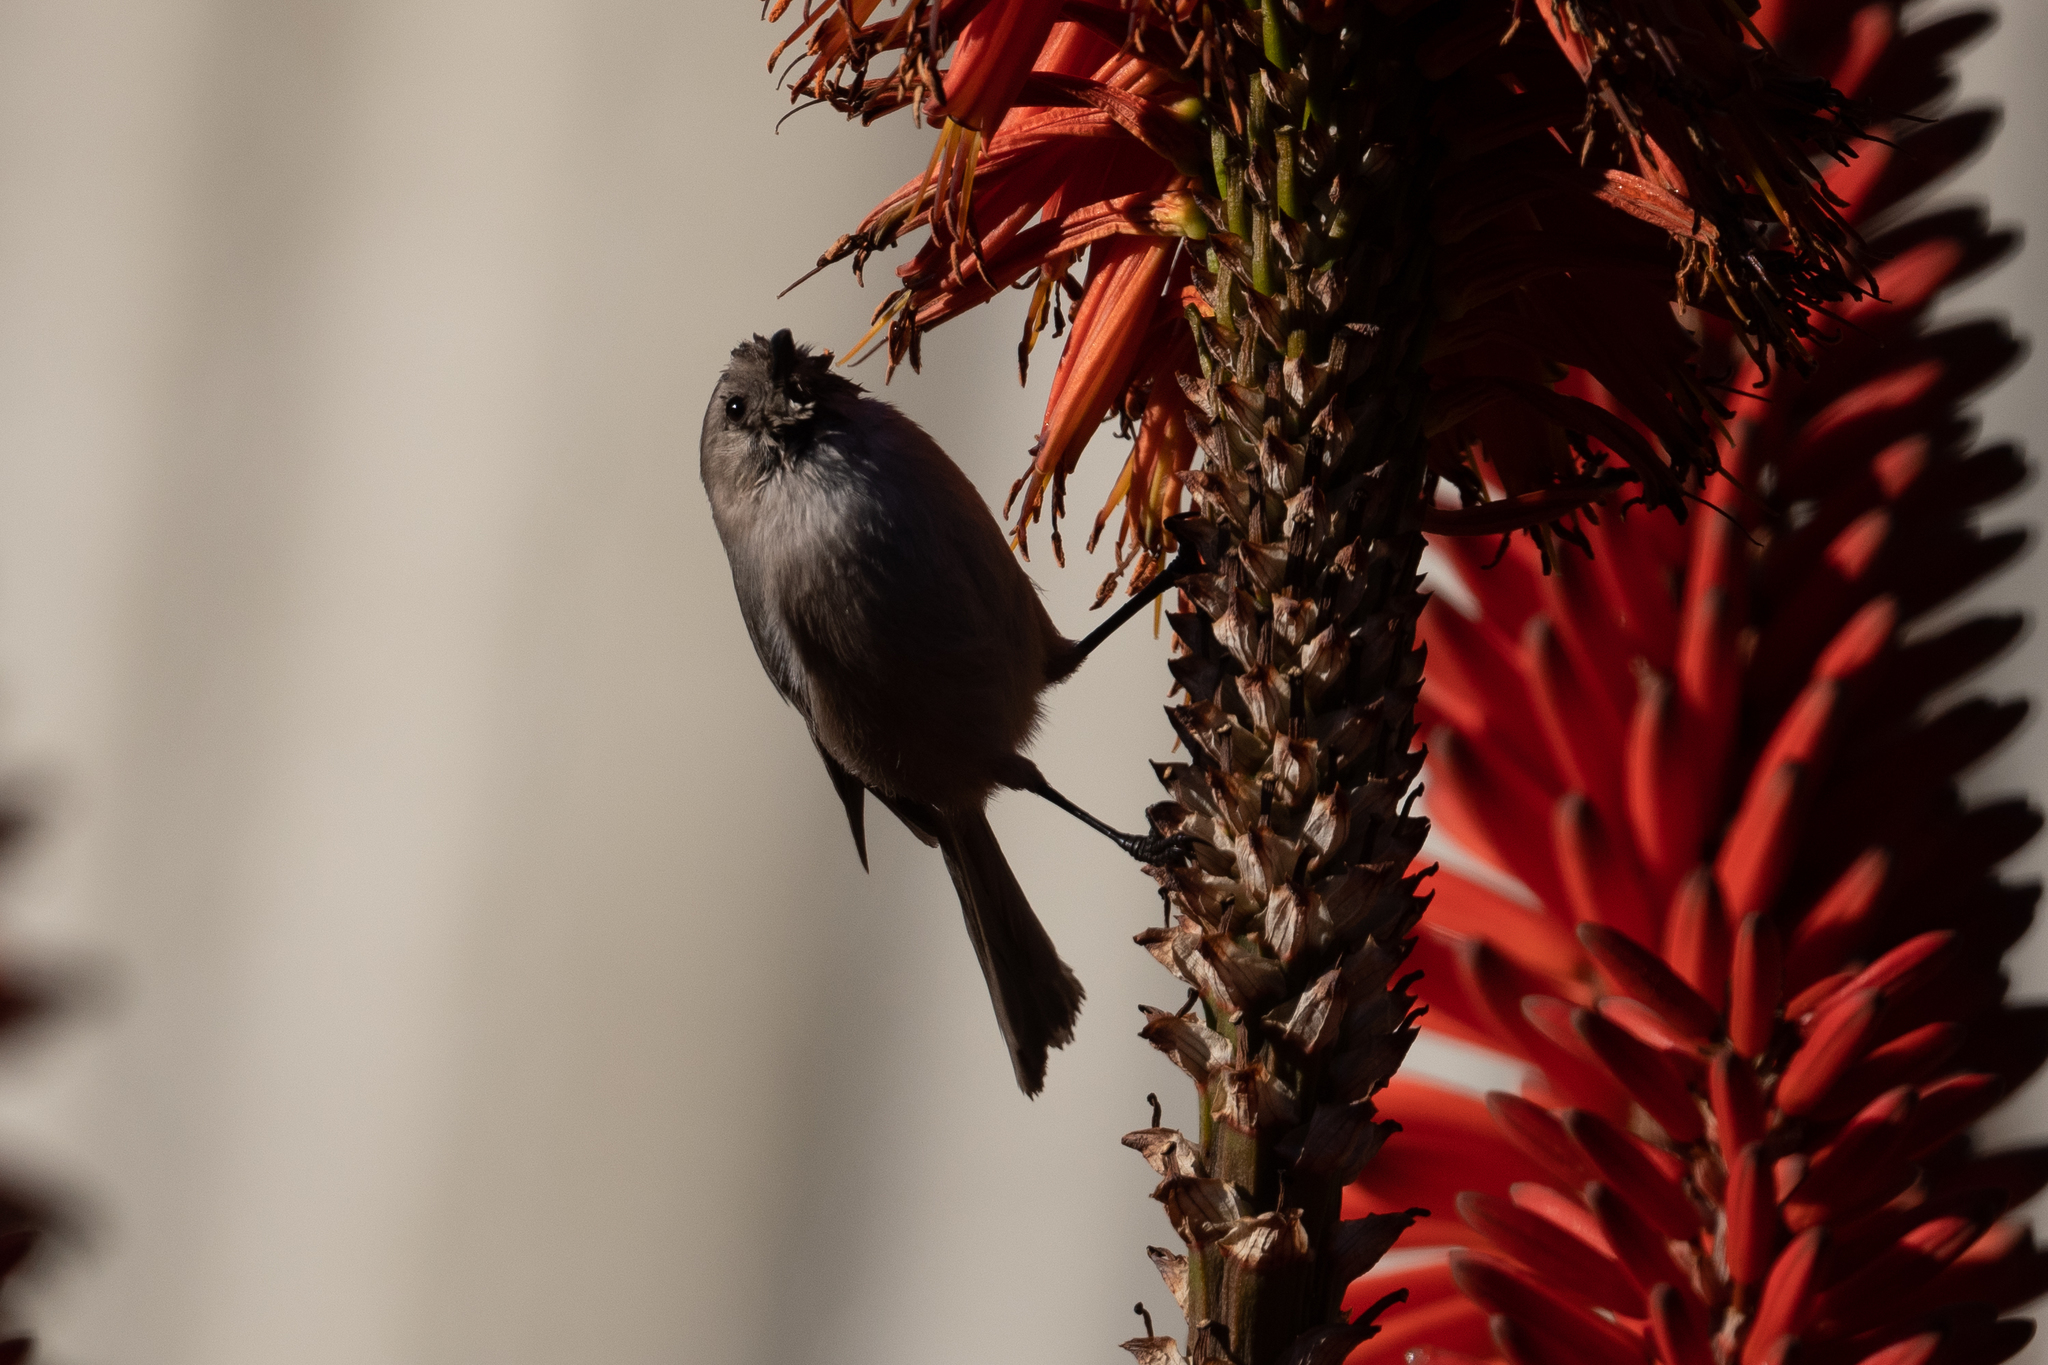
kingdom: Animalia
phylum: Chordata
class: Aves
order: Passeriformes
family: Aegithalidae
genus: Psaltriparus
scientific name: Psaltriparus minimus
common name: American bushtit
